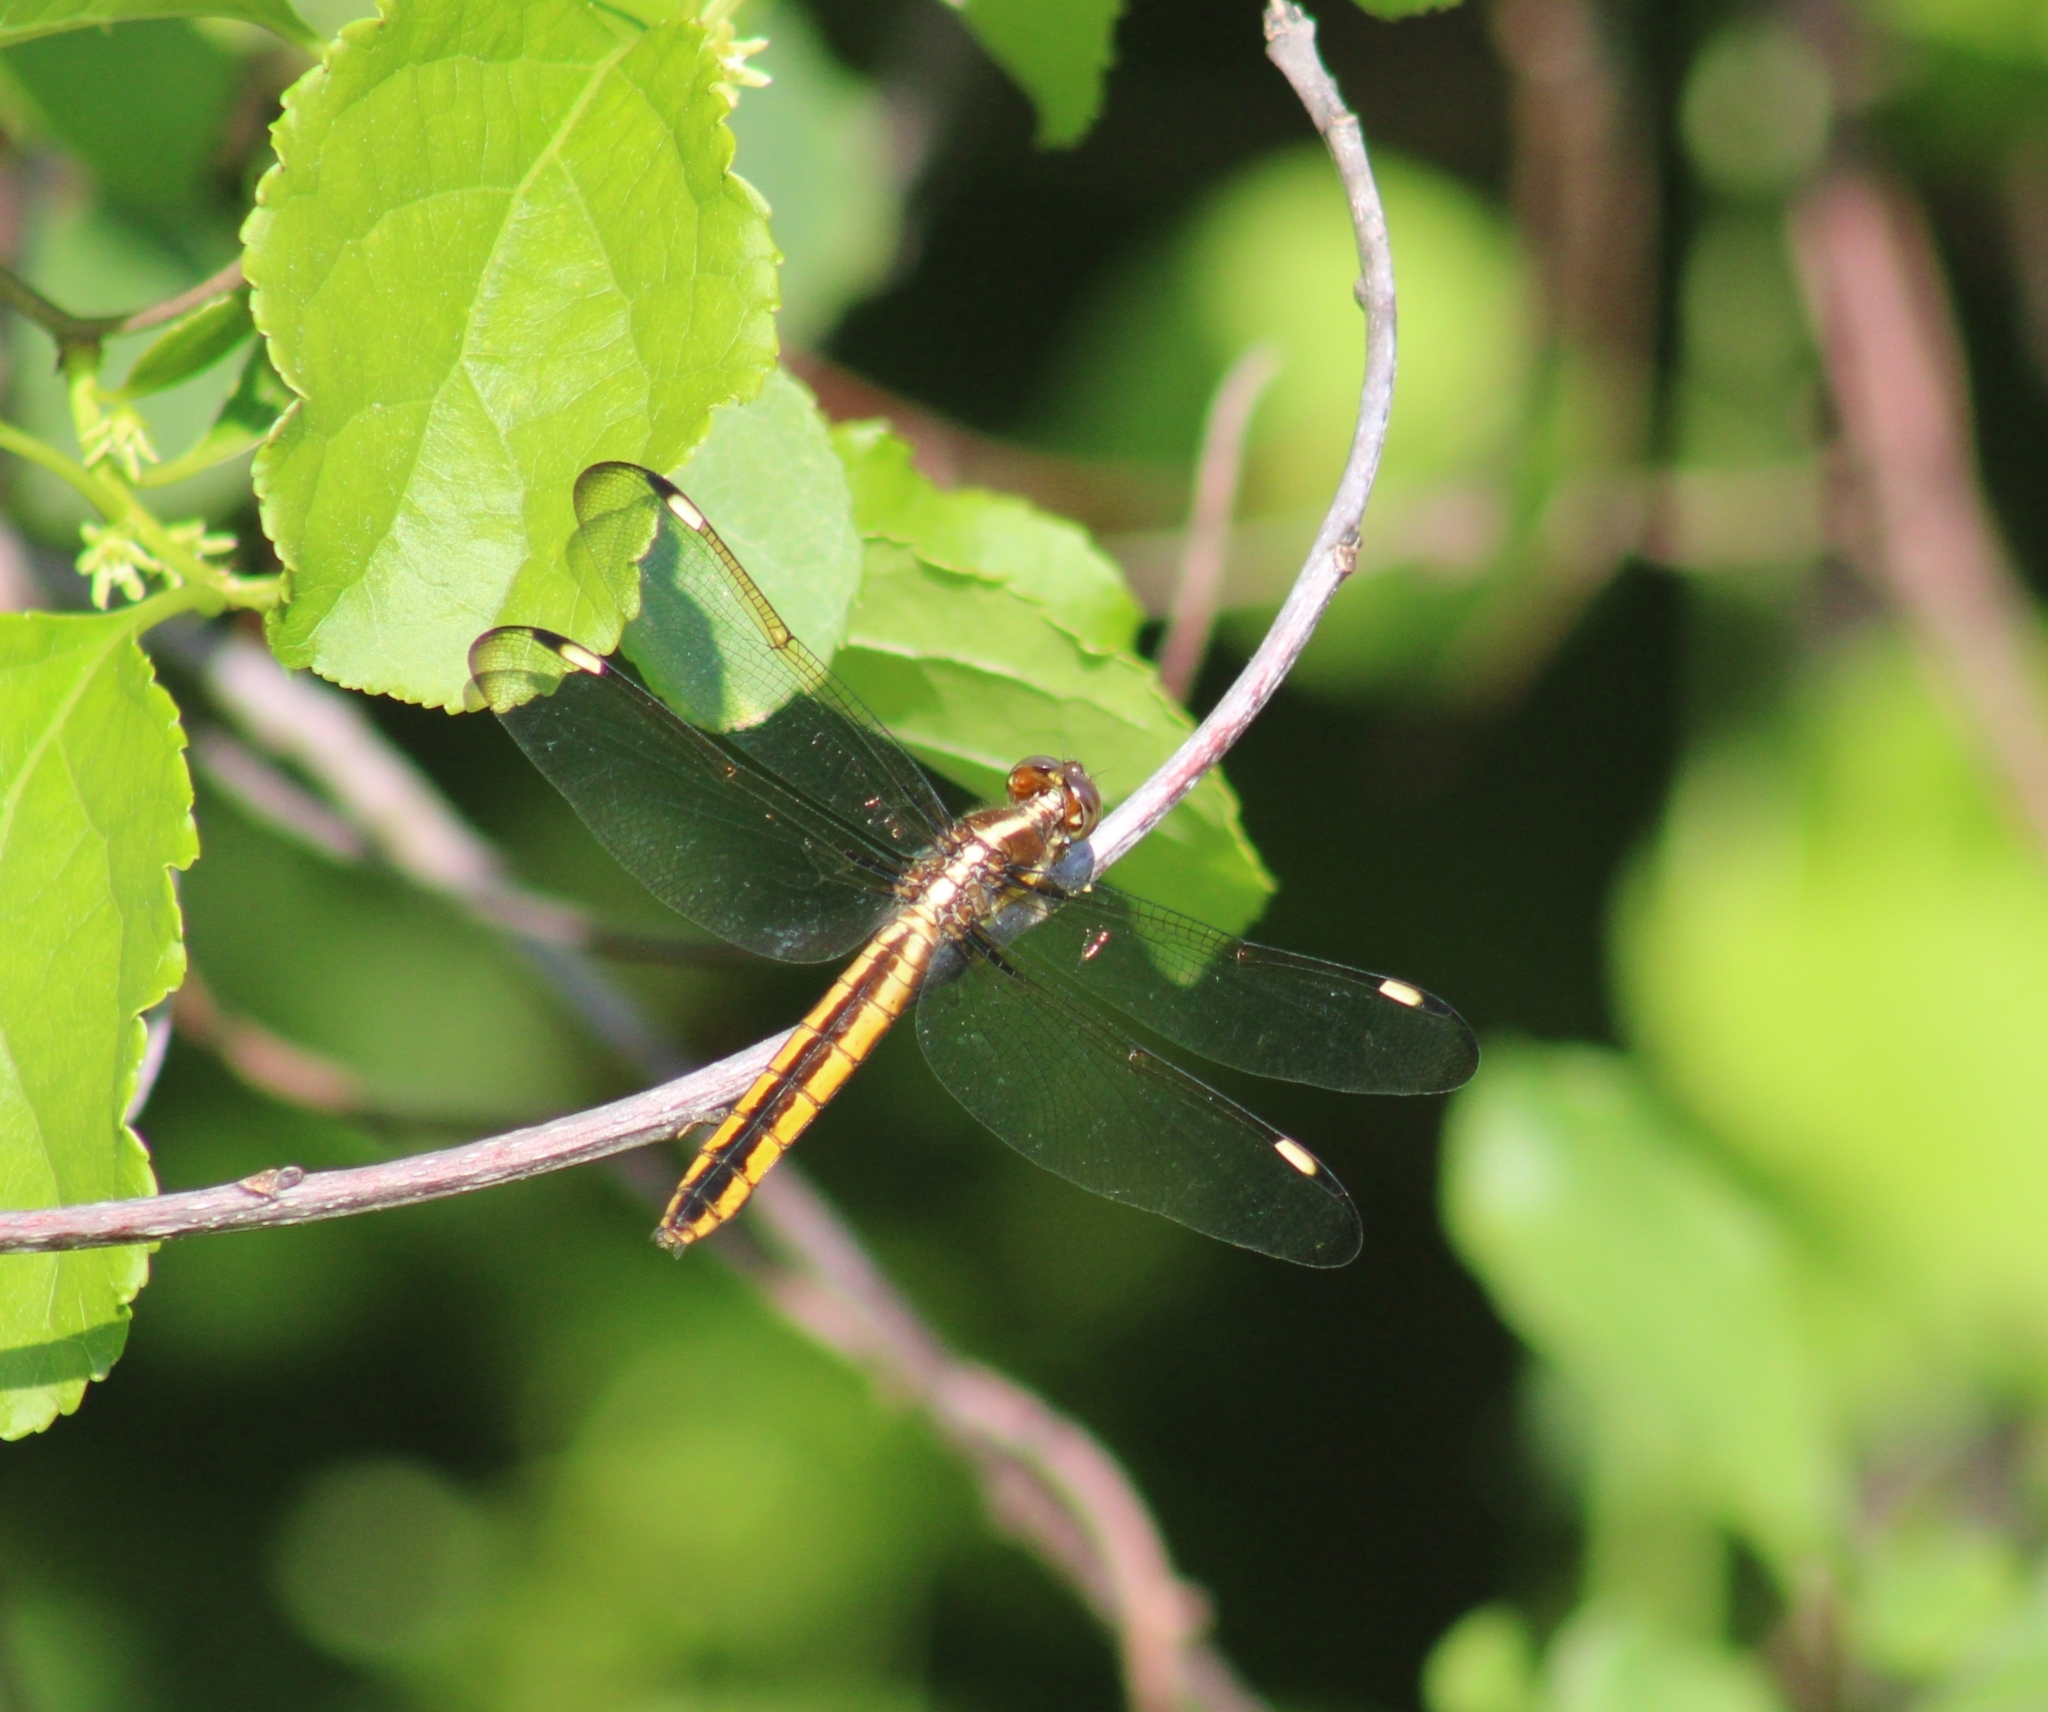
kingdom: Animalia
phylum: Arthropoda
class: Insecta
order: Odonata
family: Libellulidae
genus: Libellula
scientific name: Libellula cyanea
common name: Spangled skimmer
